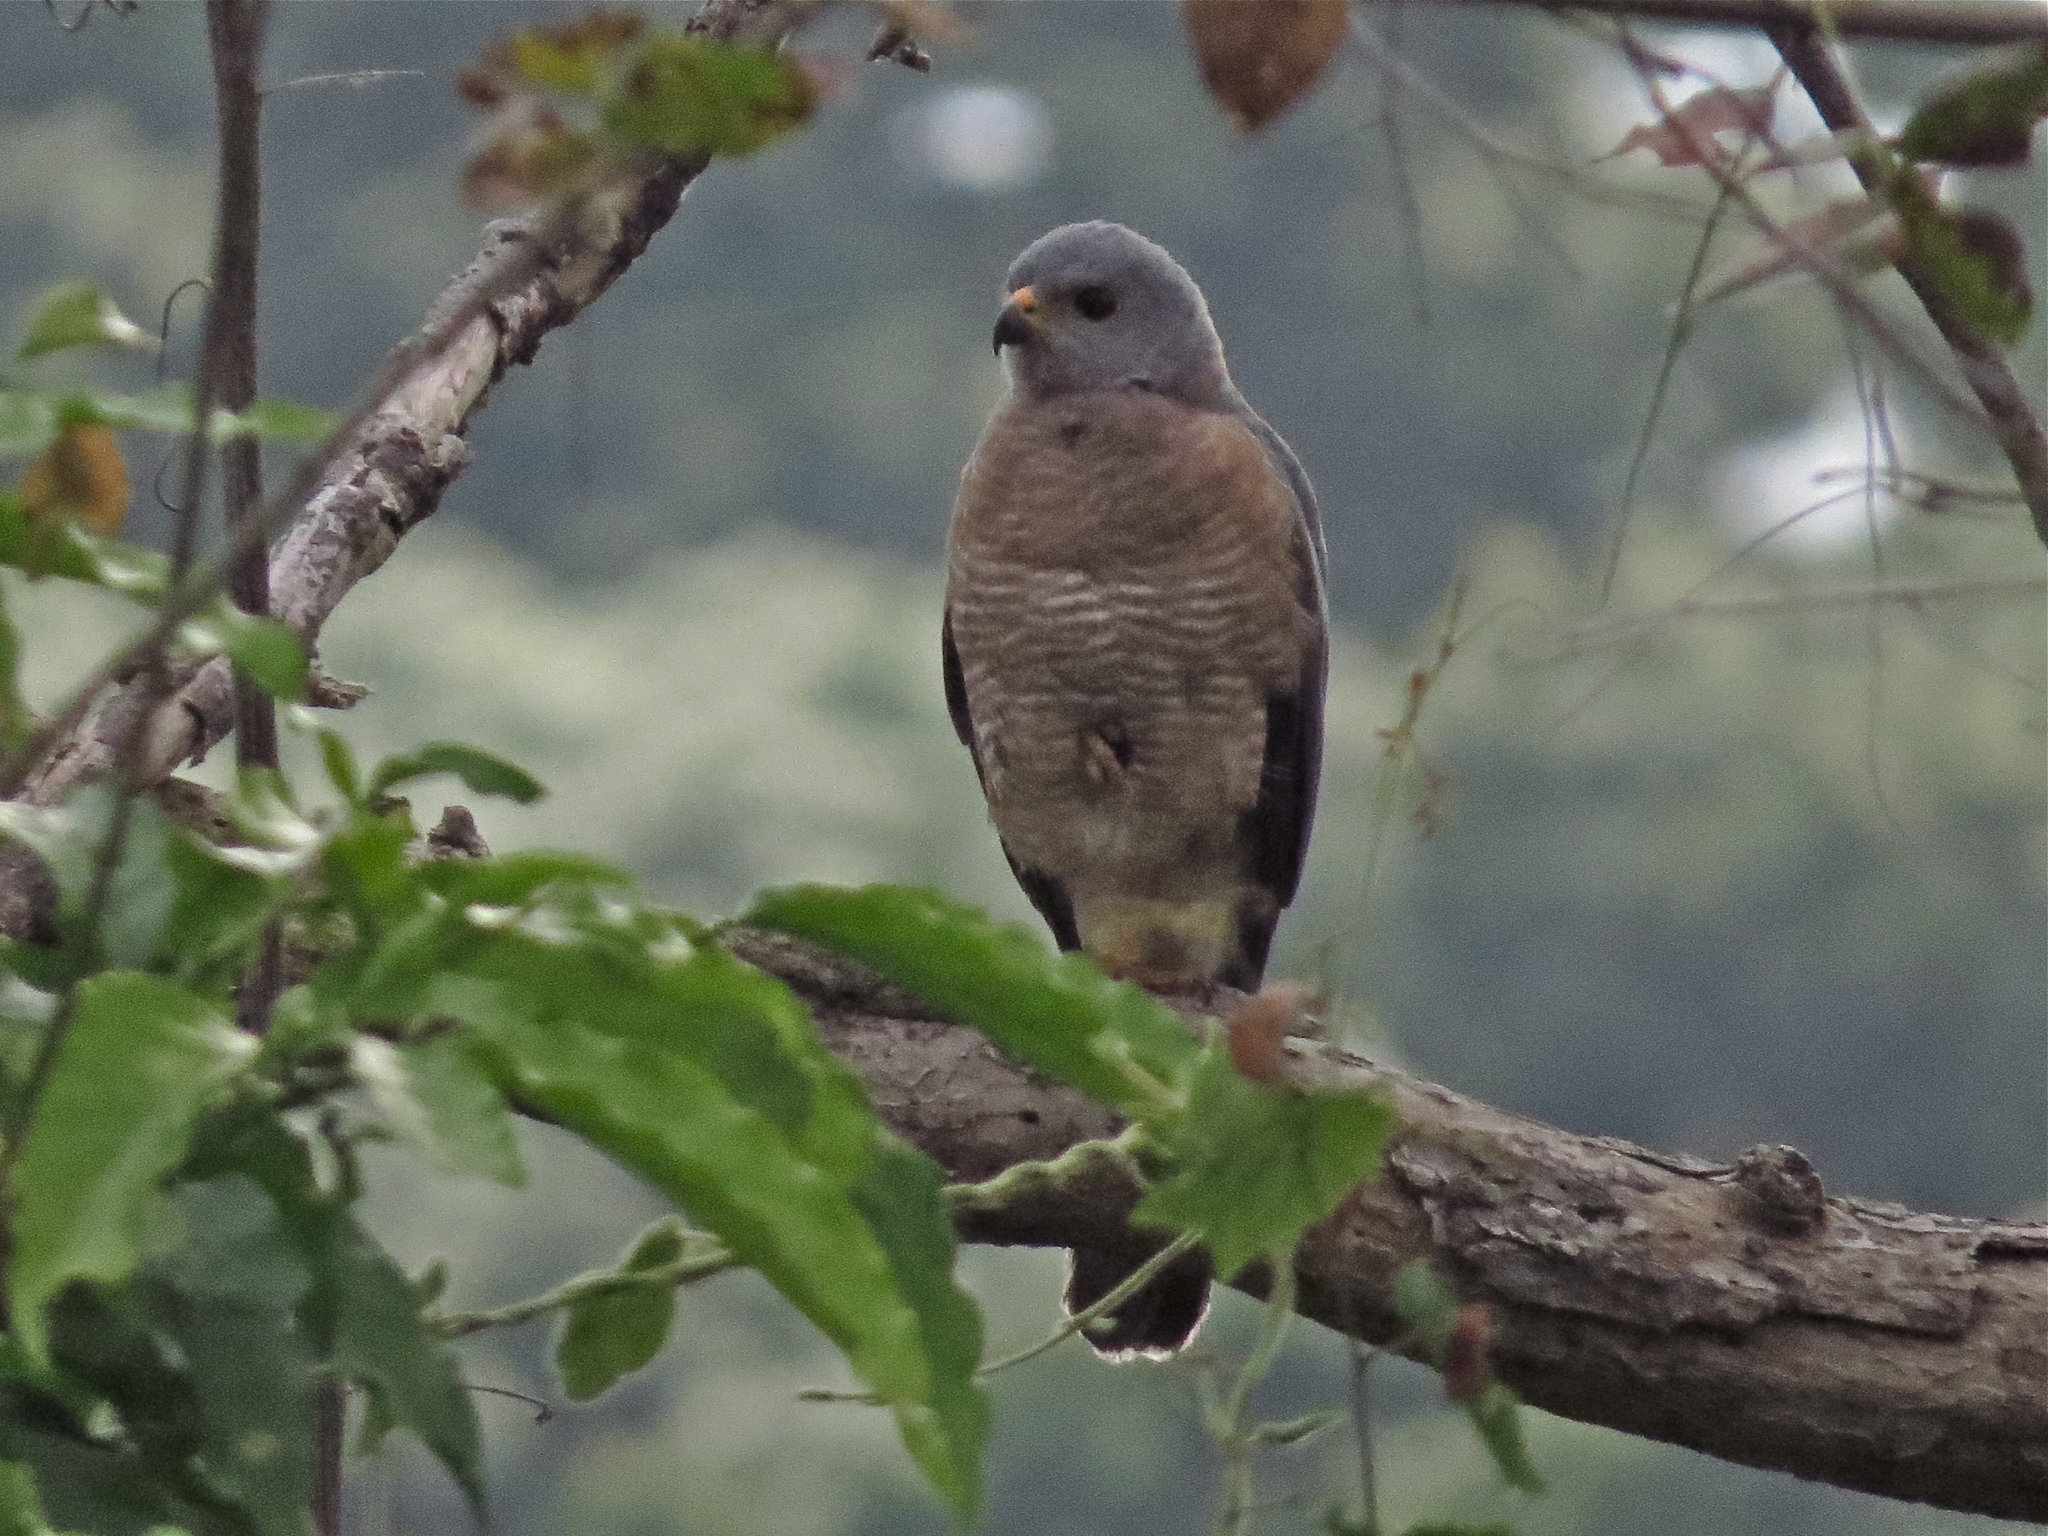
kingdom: Animalia
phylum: Chordata
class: Aves
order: Accipitriformes
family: Accipitridae
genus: Accipiter
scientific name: Accipiter hiogaster
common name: Variable goshawk
